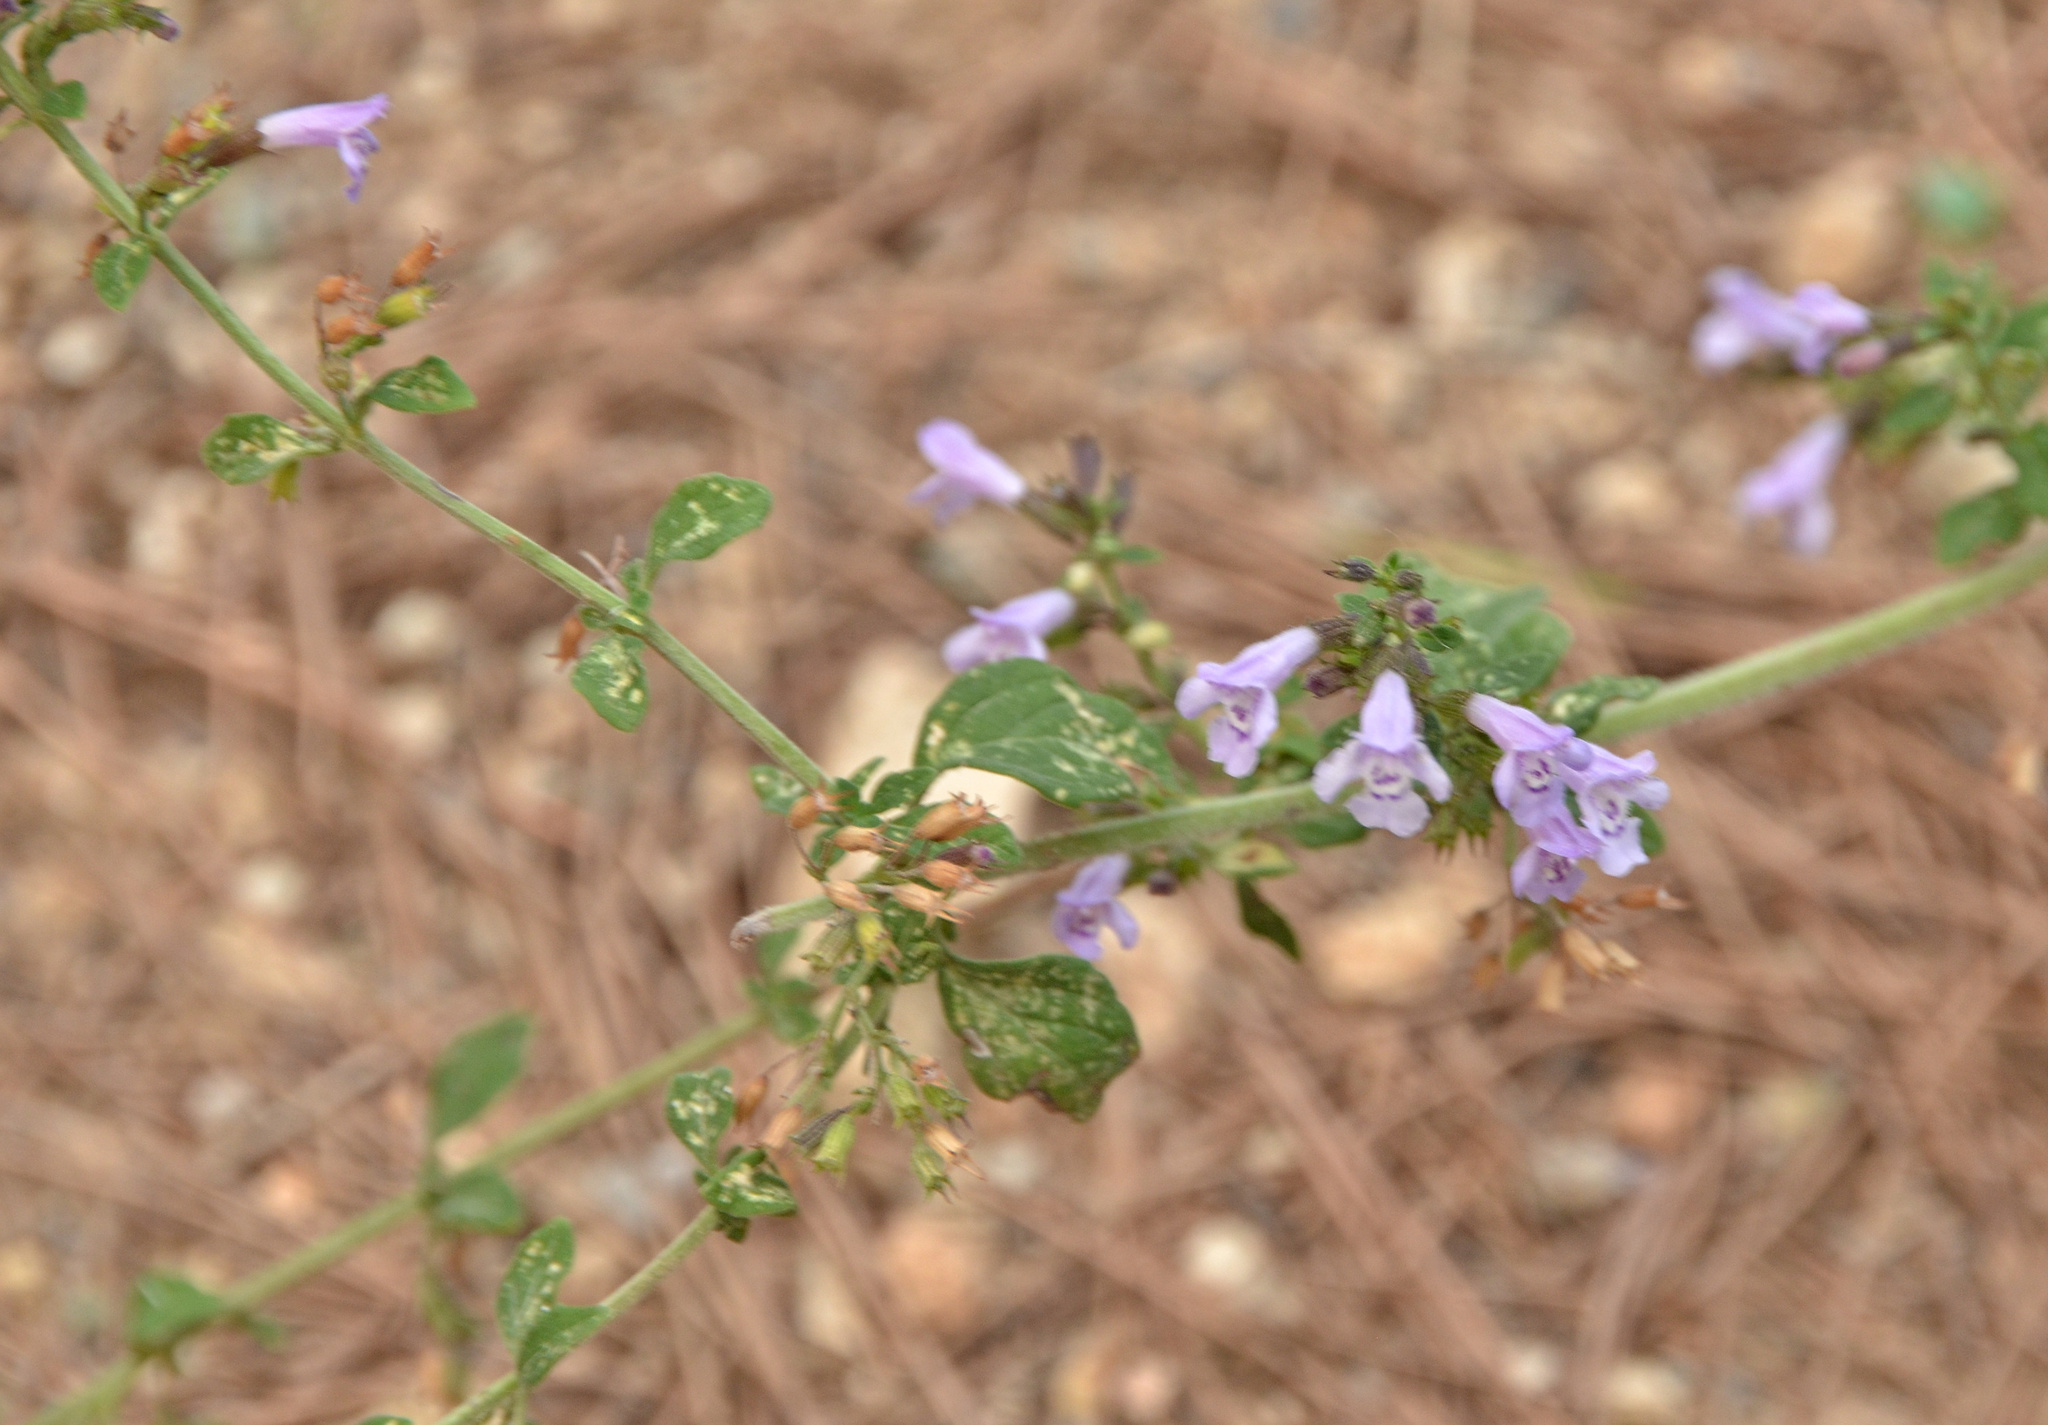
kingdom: Plantae
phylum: Tracheophyta
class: Magnoliopsida
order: Lamiales
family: Lamiaceae
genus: Clinopodium
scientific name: Clinopodium nepeta
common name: Lesser calamint
